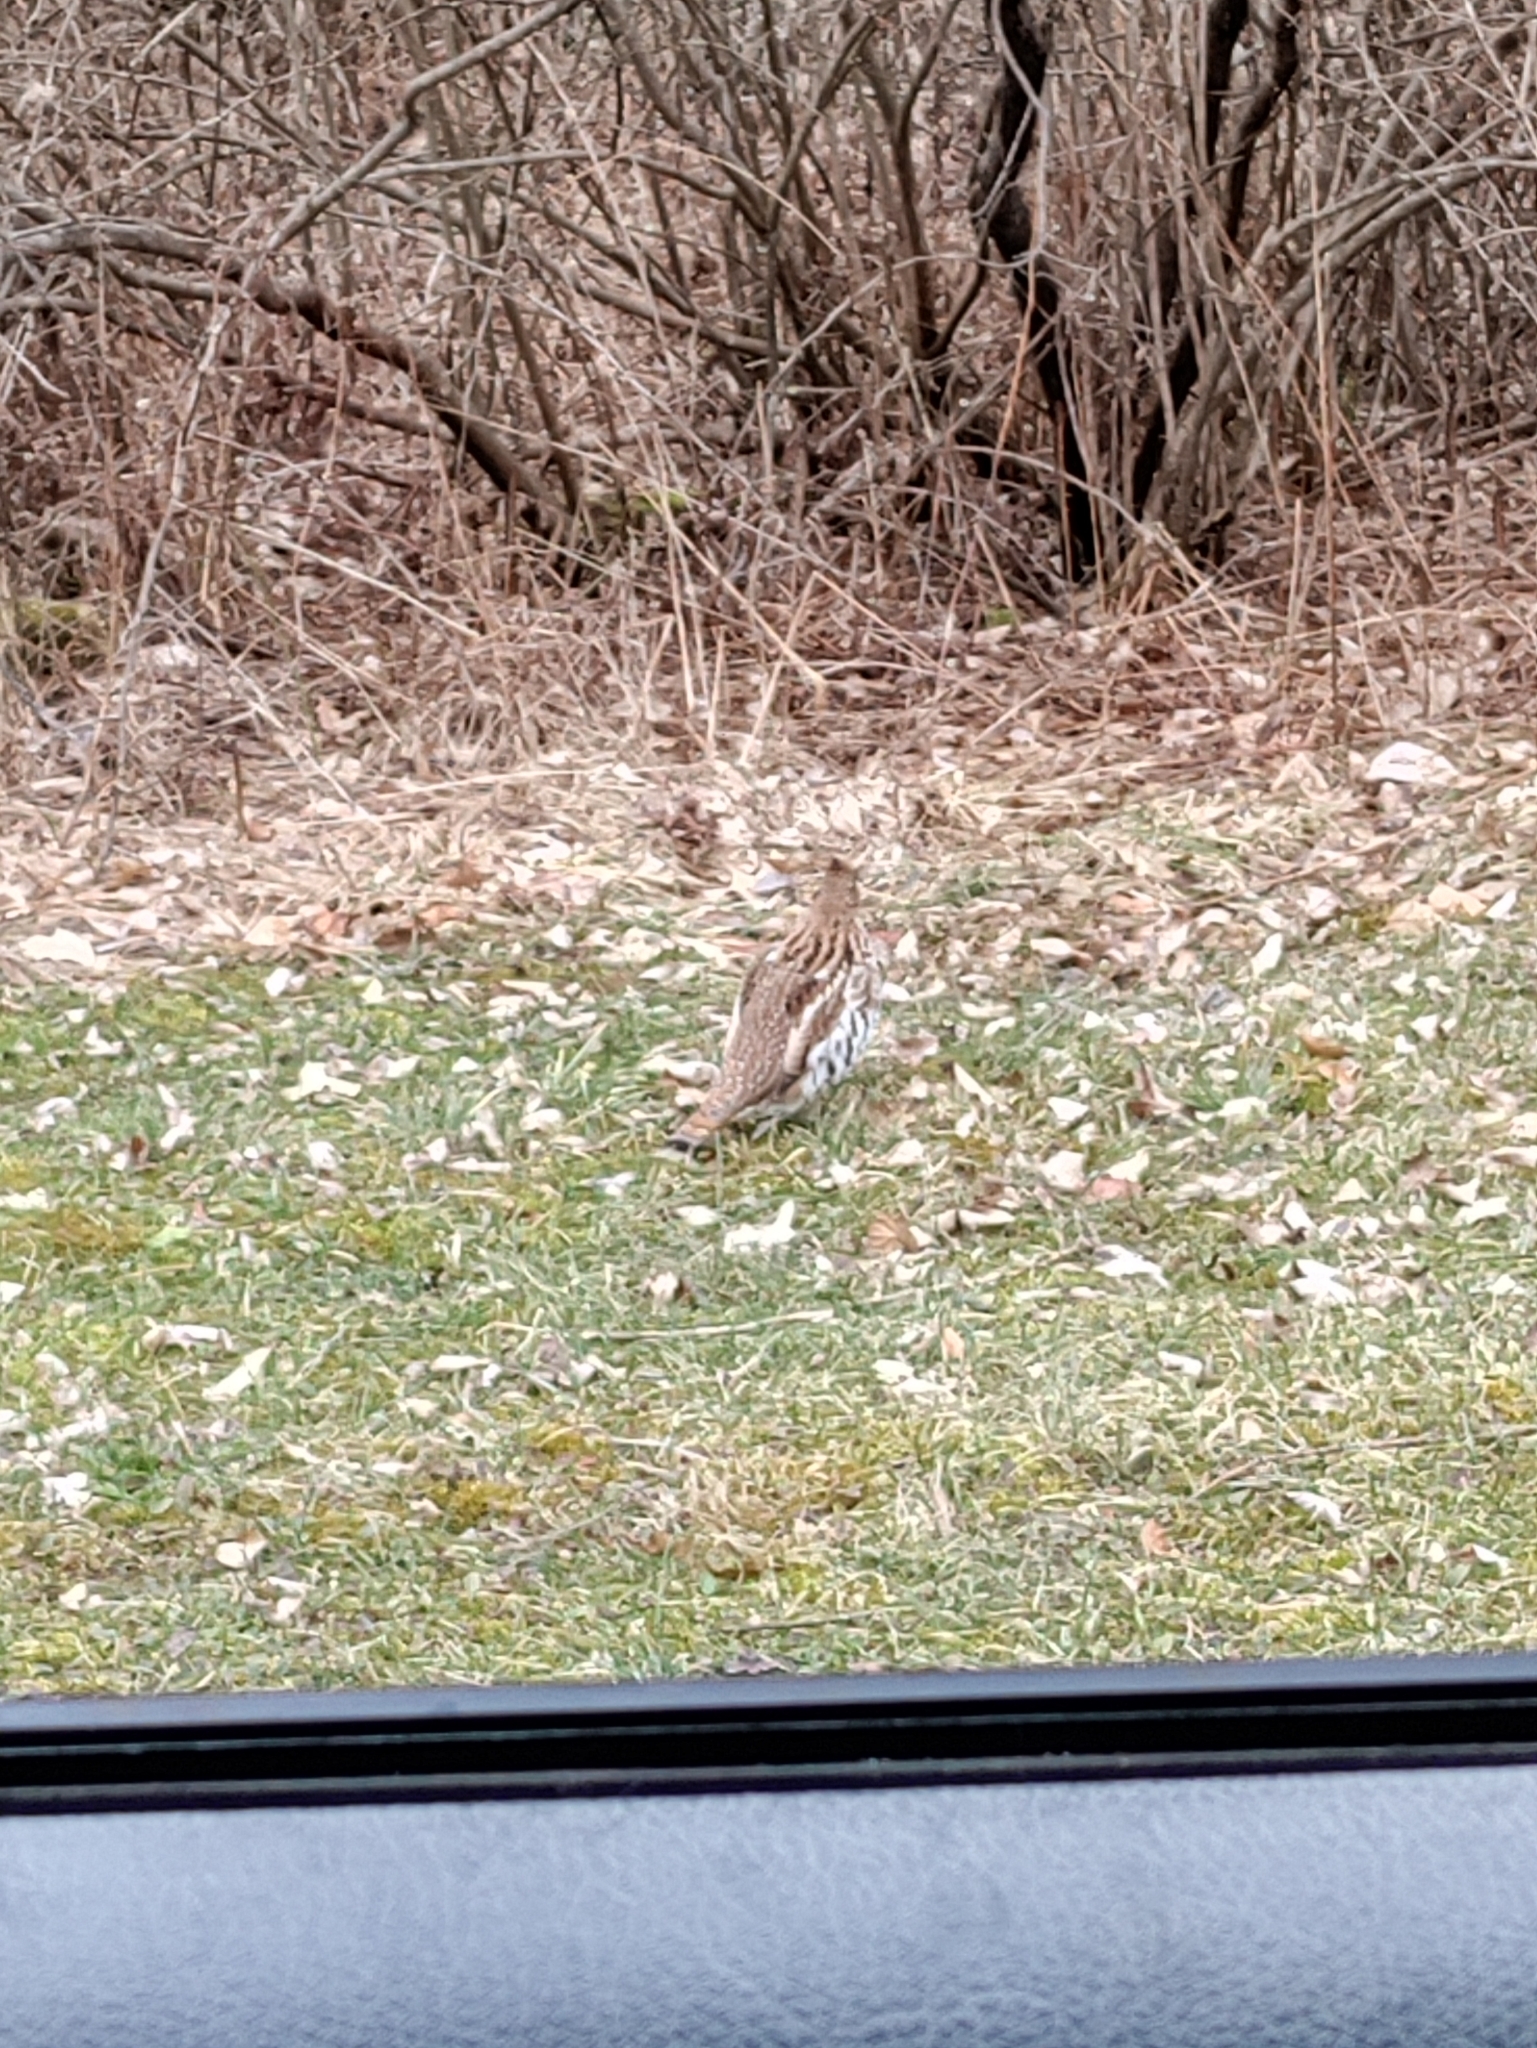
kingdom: Animalia
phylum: Chordata
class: Aves
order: Galliformes
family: Phasianidae
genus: Bonasa
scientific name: Bonasa umbellus
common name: Ruffed grouse
